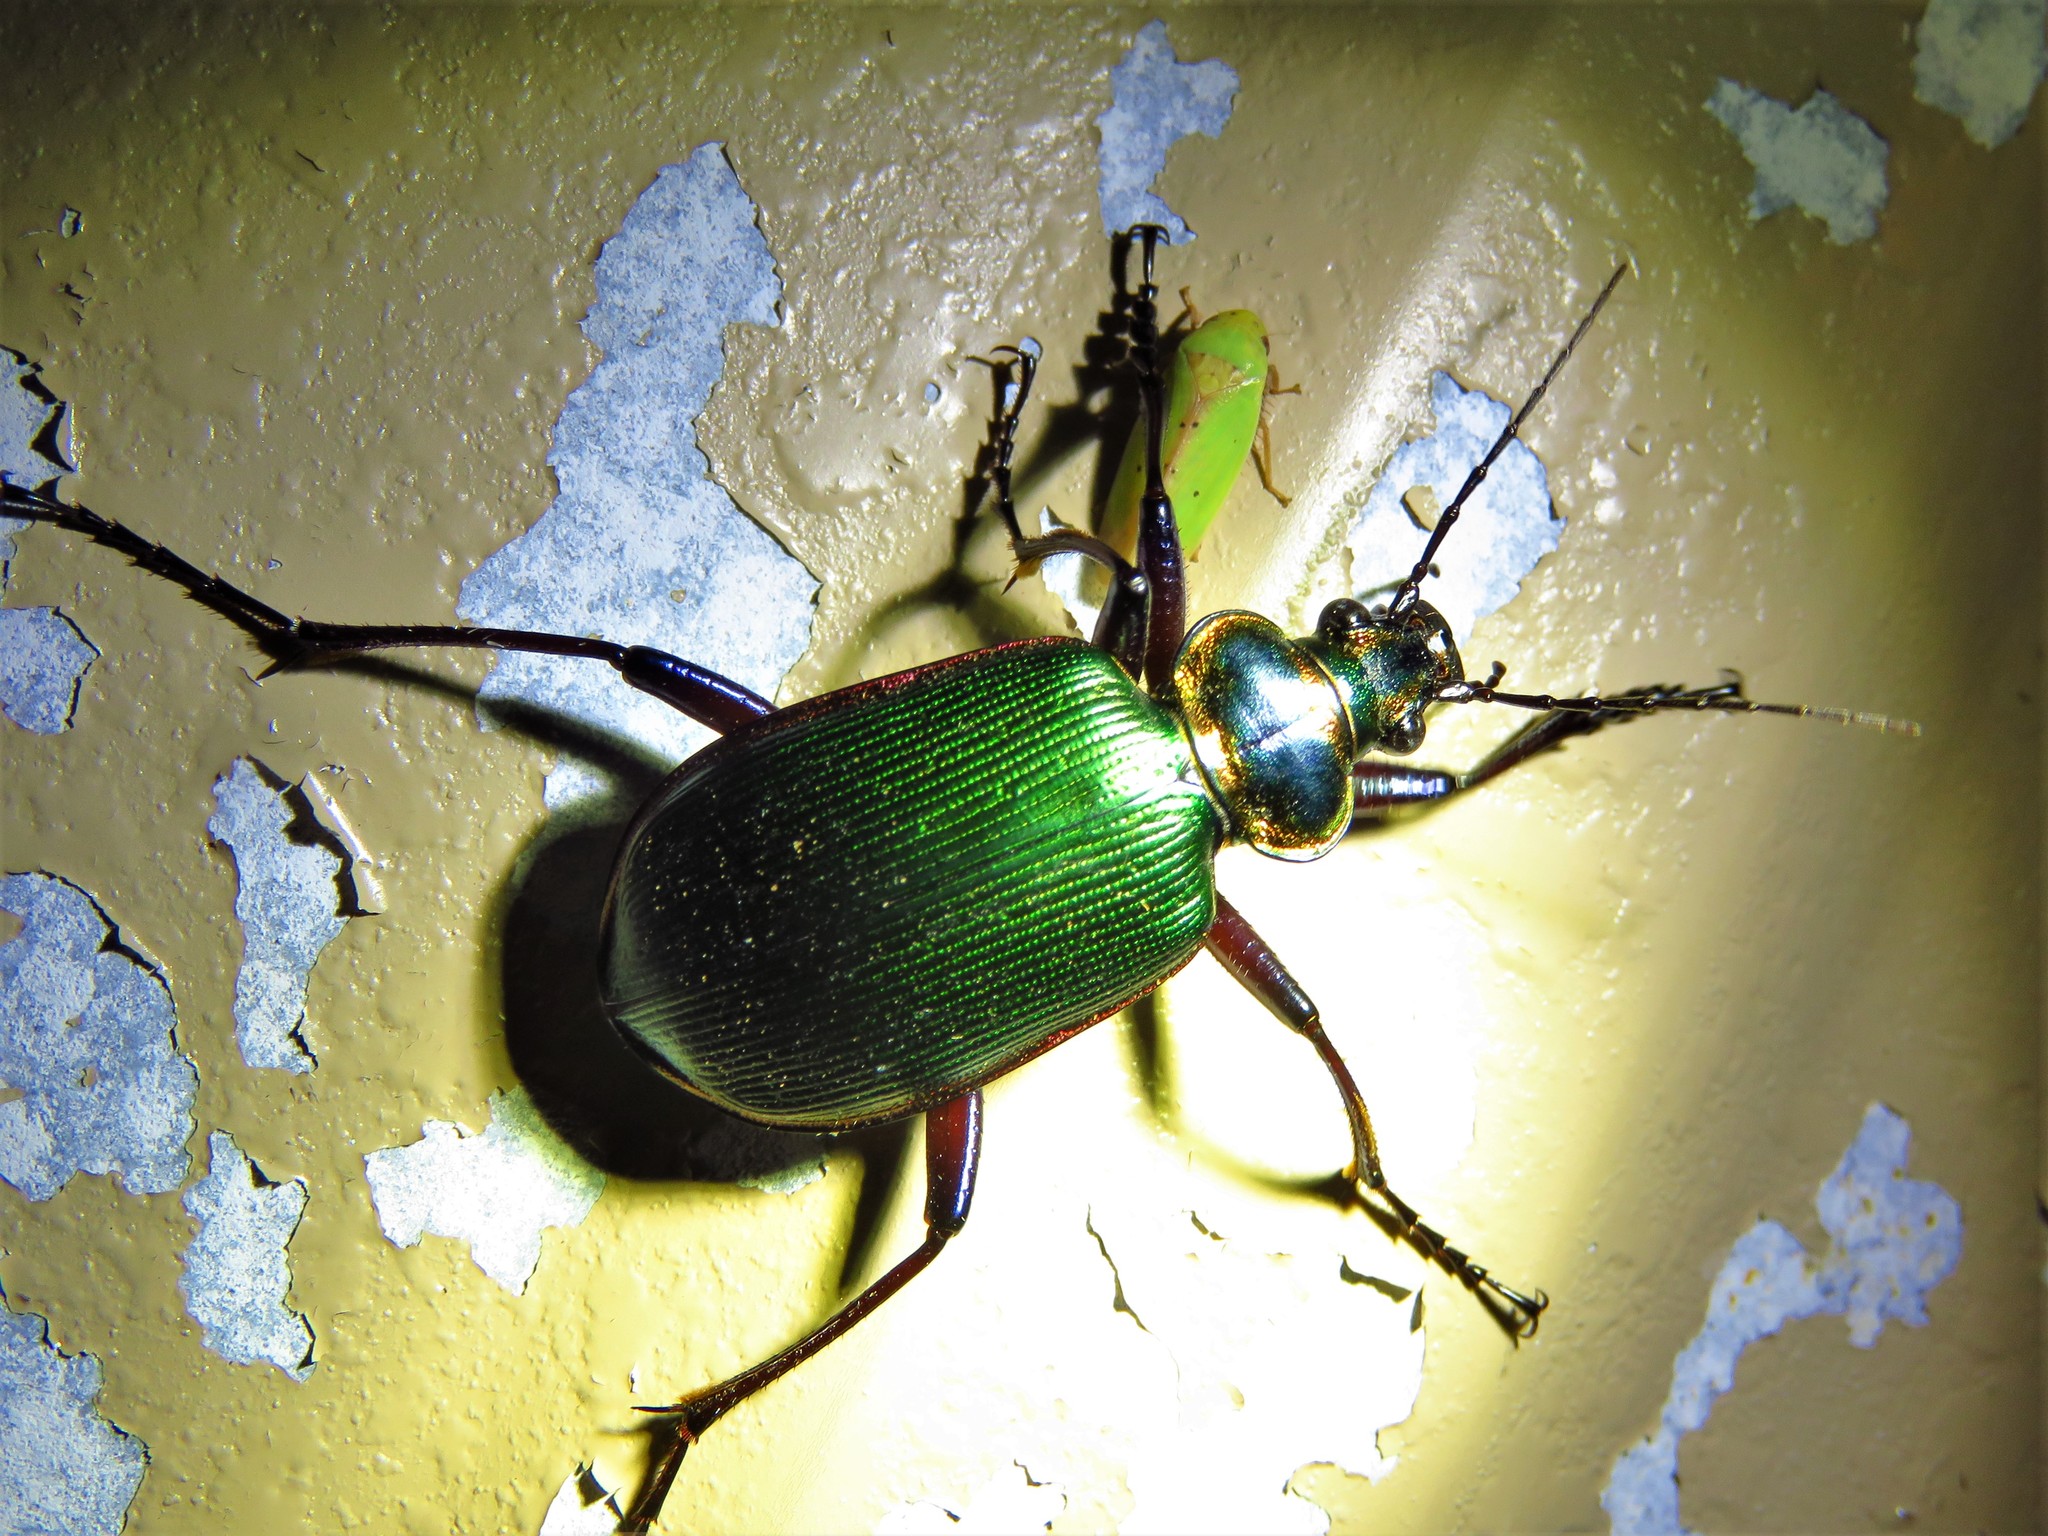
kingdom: Animalia
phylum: Arthropoda
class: Insecta
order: Coleoptera
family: Carabidae
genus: Calosoma
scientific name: Calosoma scrutator
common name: Fiery searcher beetle
